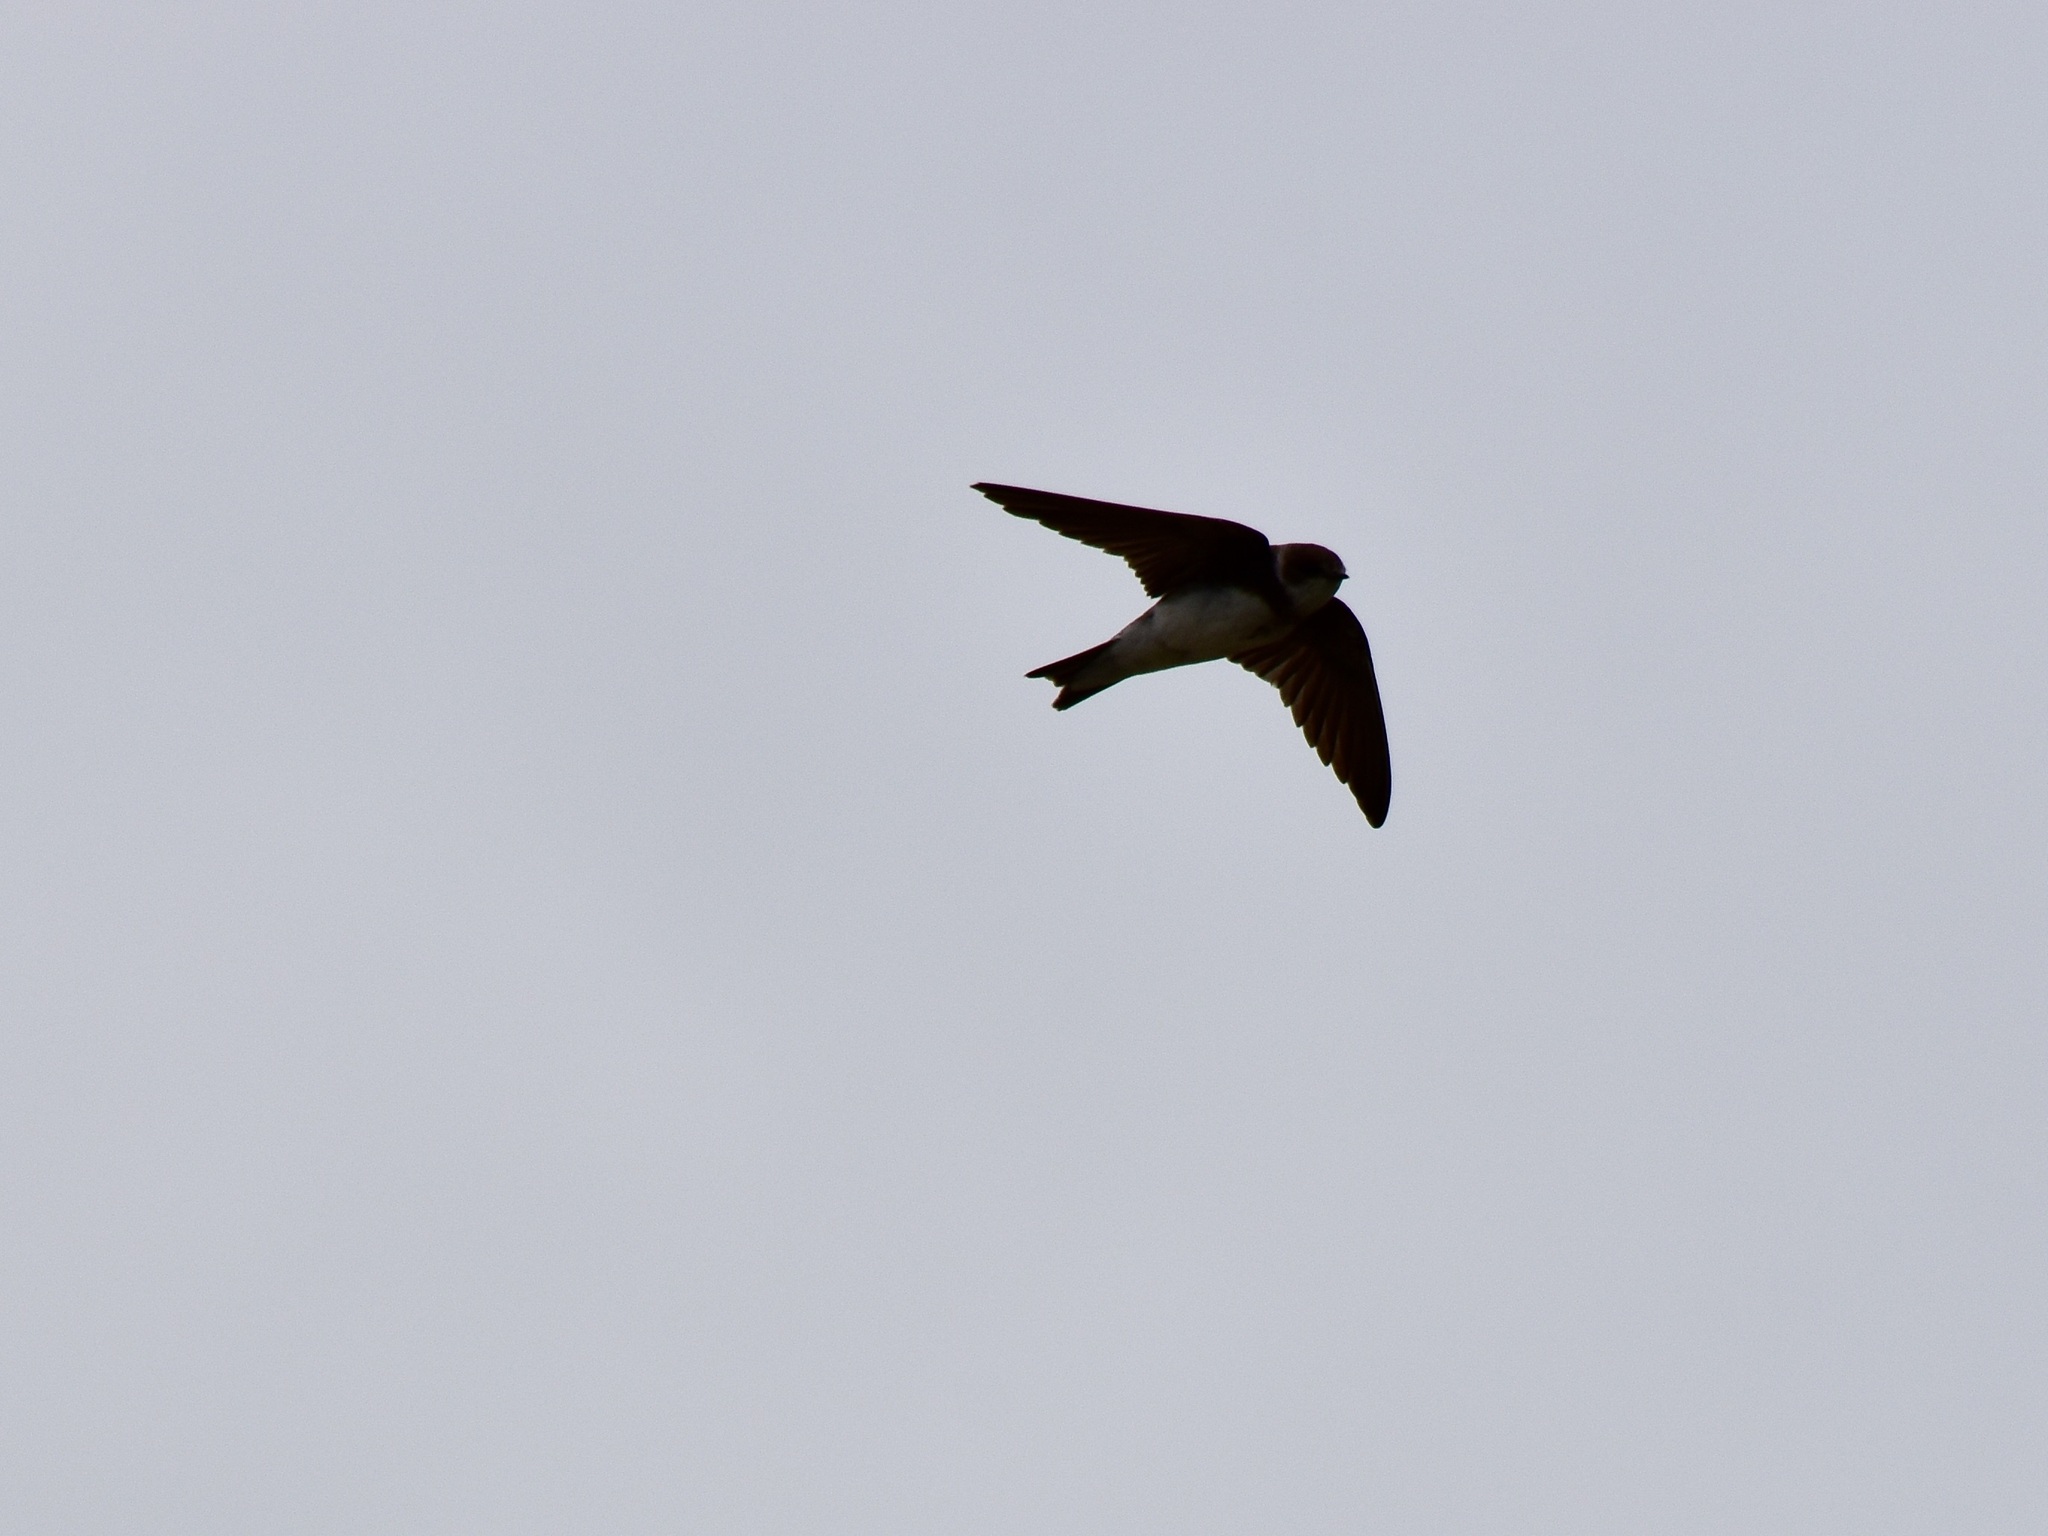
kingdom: Animalia
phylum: Chordata
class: Aves
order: Passeriformes
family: Hirundinidae
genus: Riparia
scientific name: Riparia riparia
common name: Sand martin
